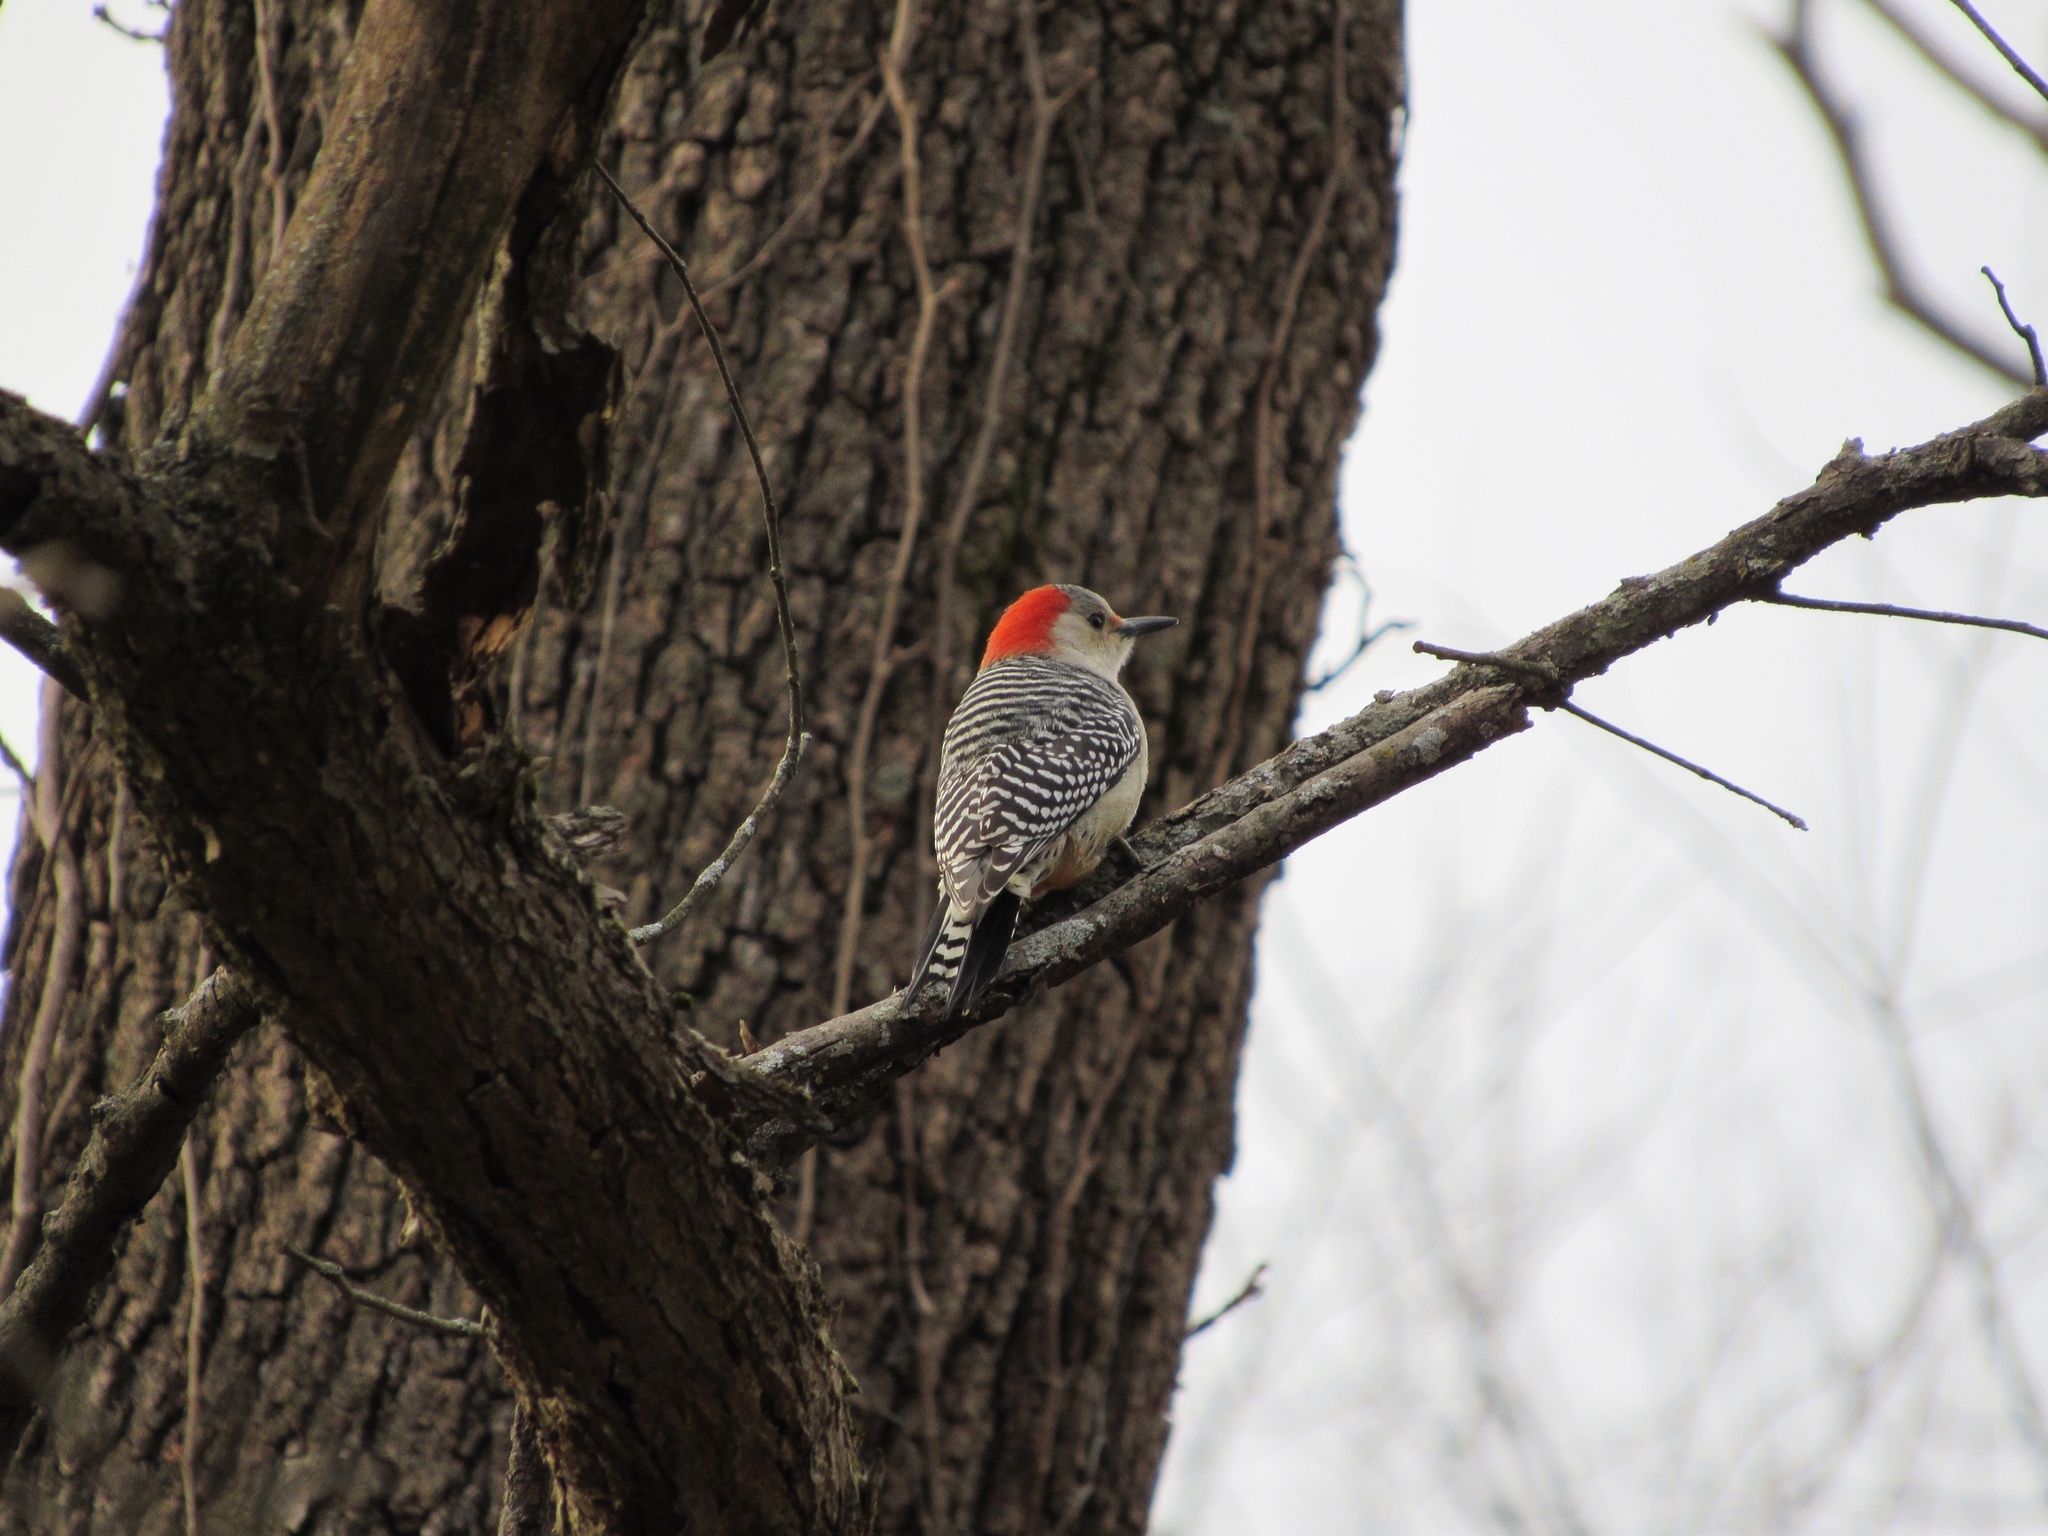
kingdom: Animalia
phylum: Chordata
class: Aves
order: Piciformes
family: Picidae
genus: Melanerpes
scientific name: Melanerpes carolinus
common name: Red-bellied woodpecker
